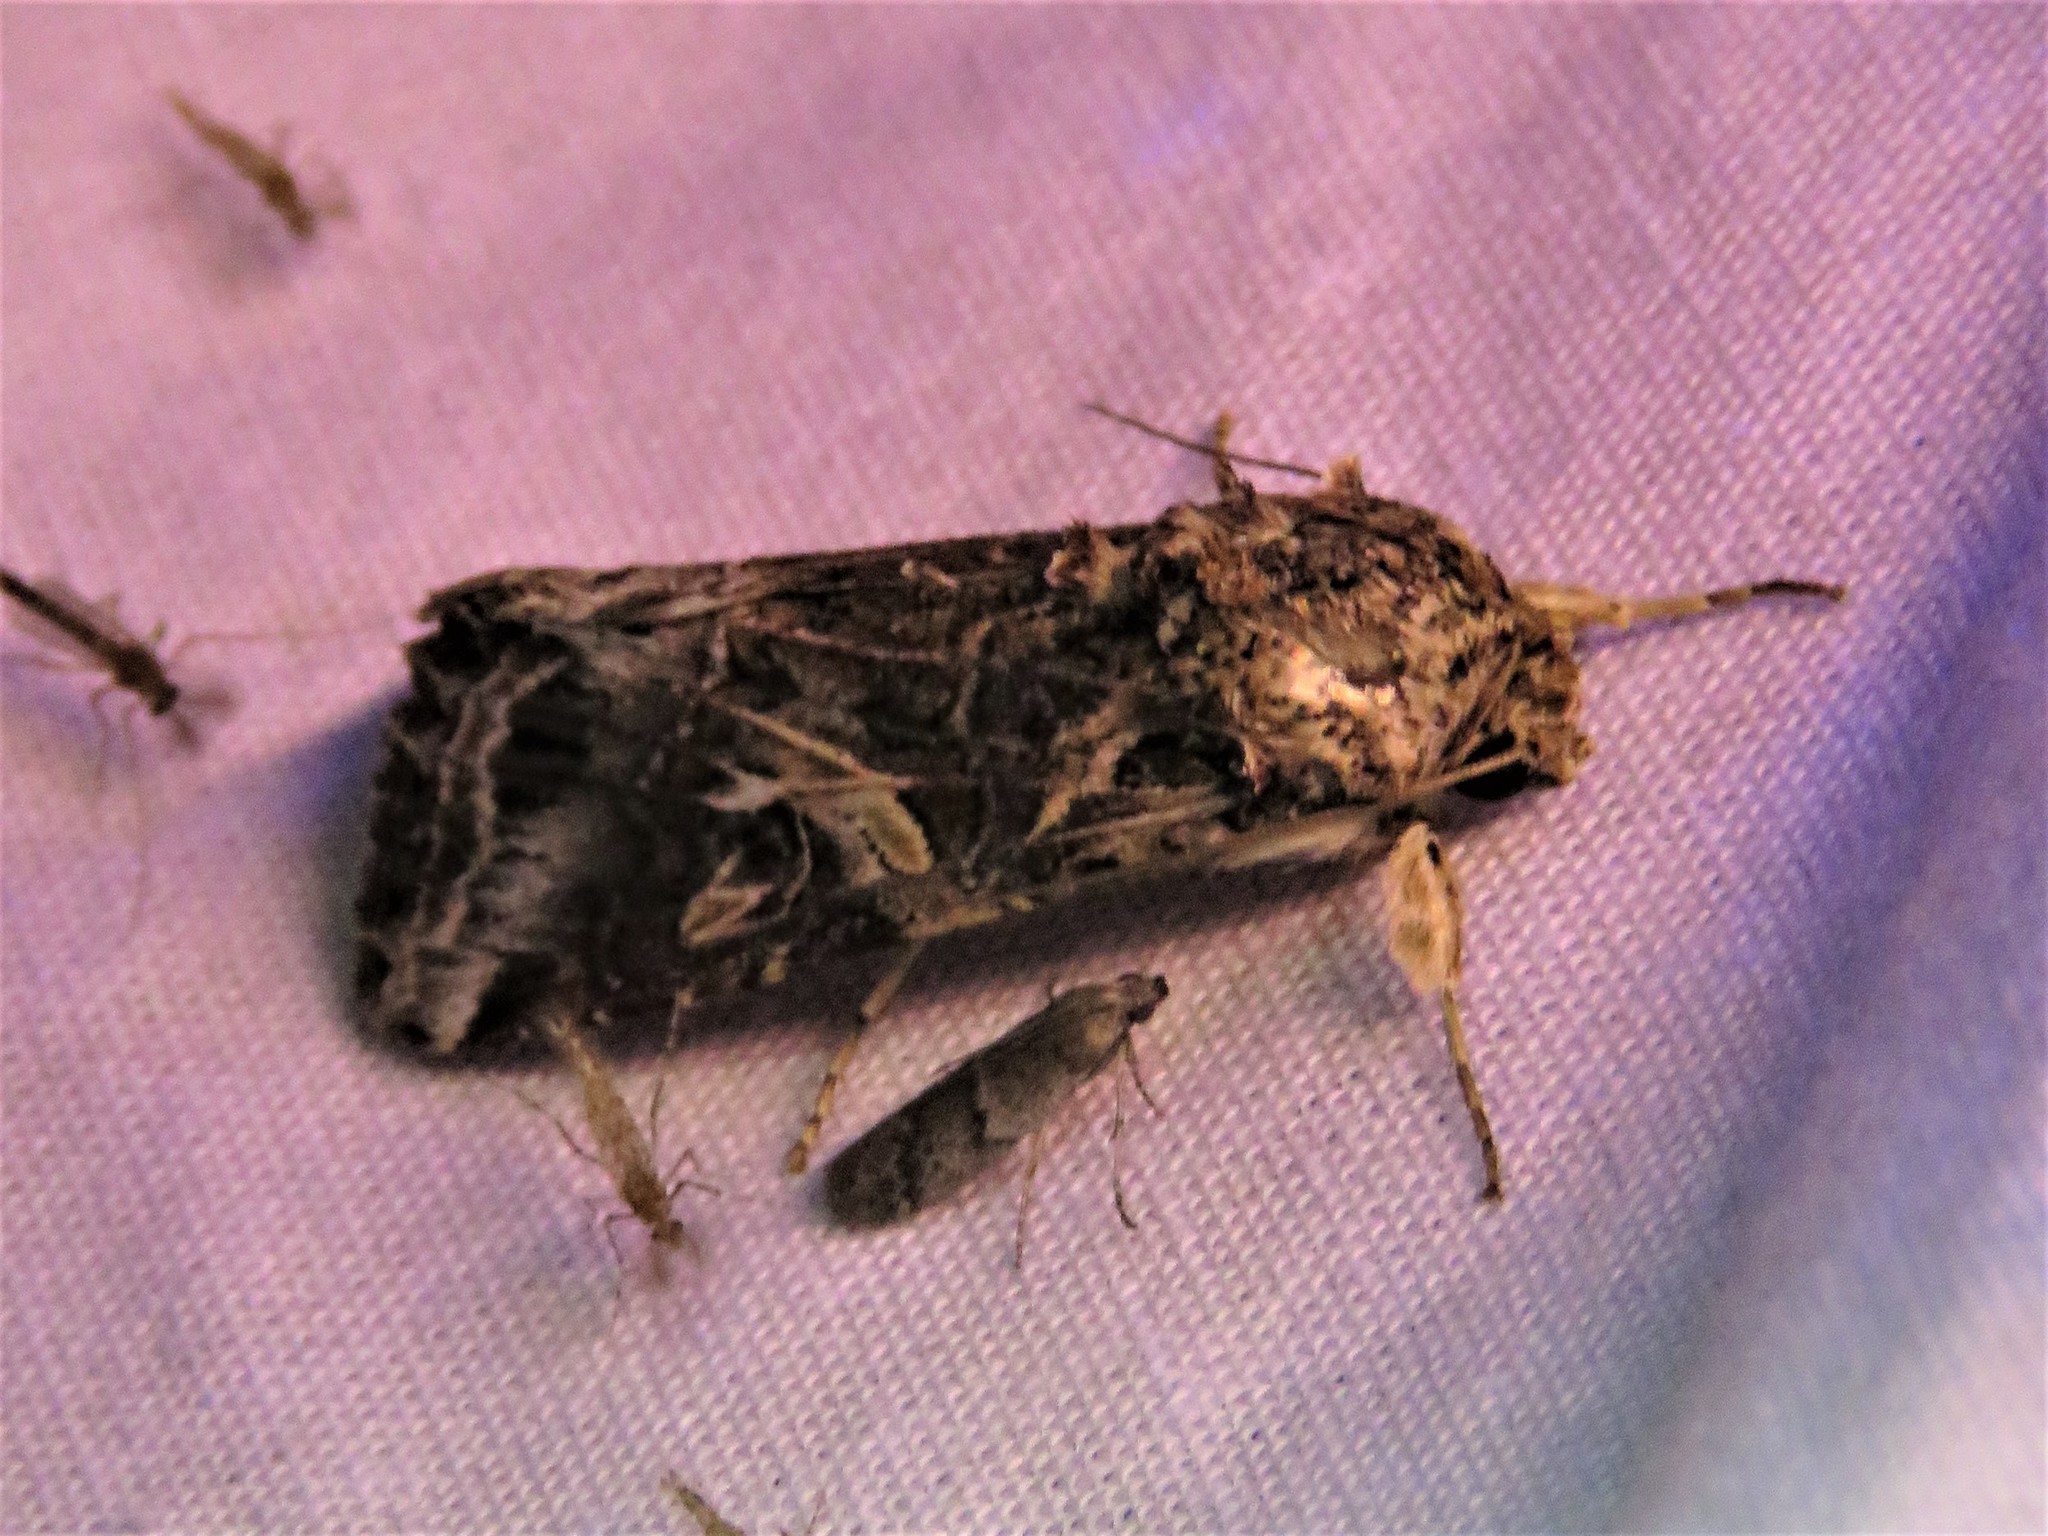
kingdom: Animalia
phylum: Arthropoda
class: Insecta
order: Lepidoptera
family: Noctuidae
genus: Spodoptera
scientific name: Spodoptera ornithogalli
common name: Yellow-striped armyworm
